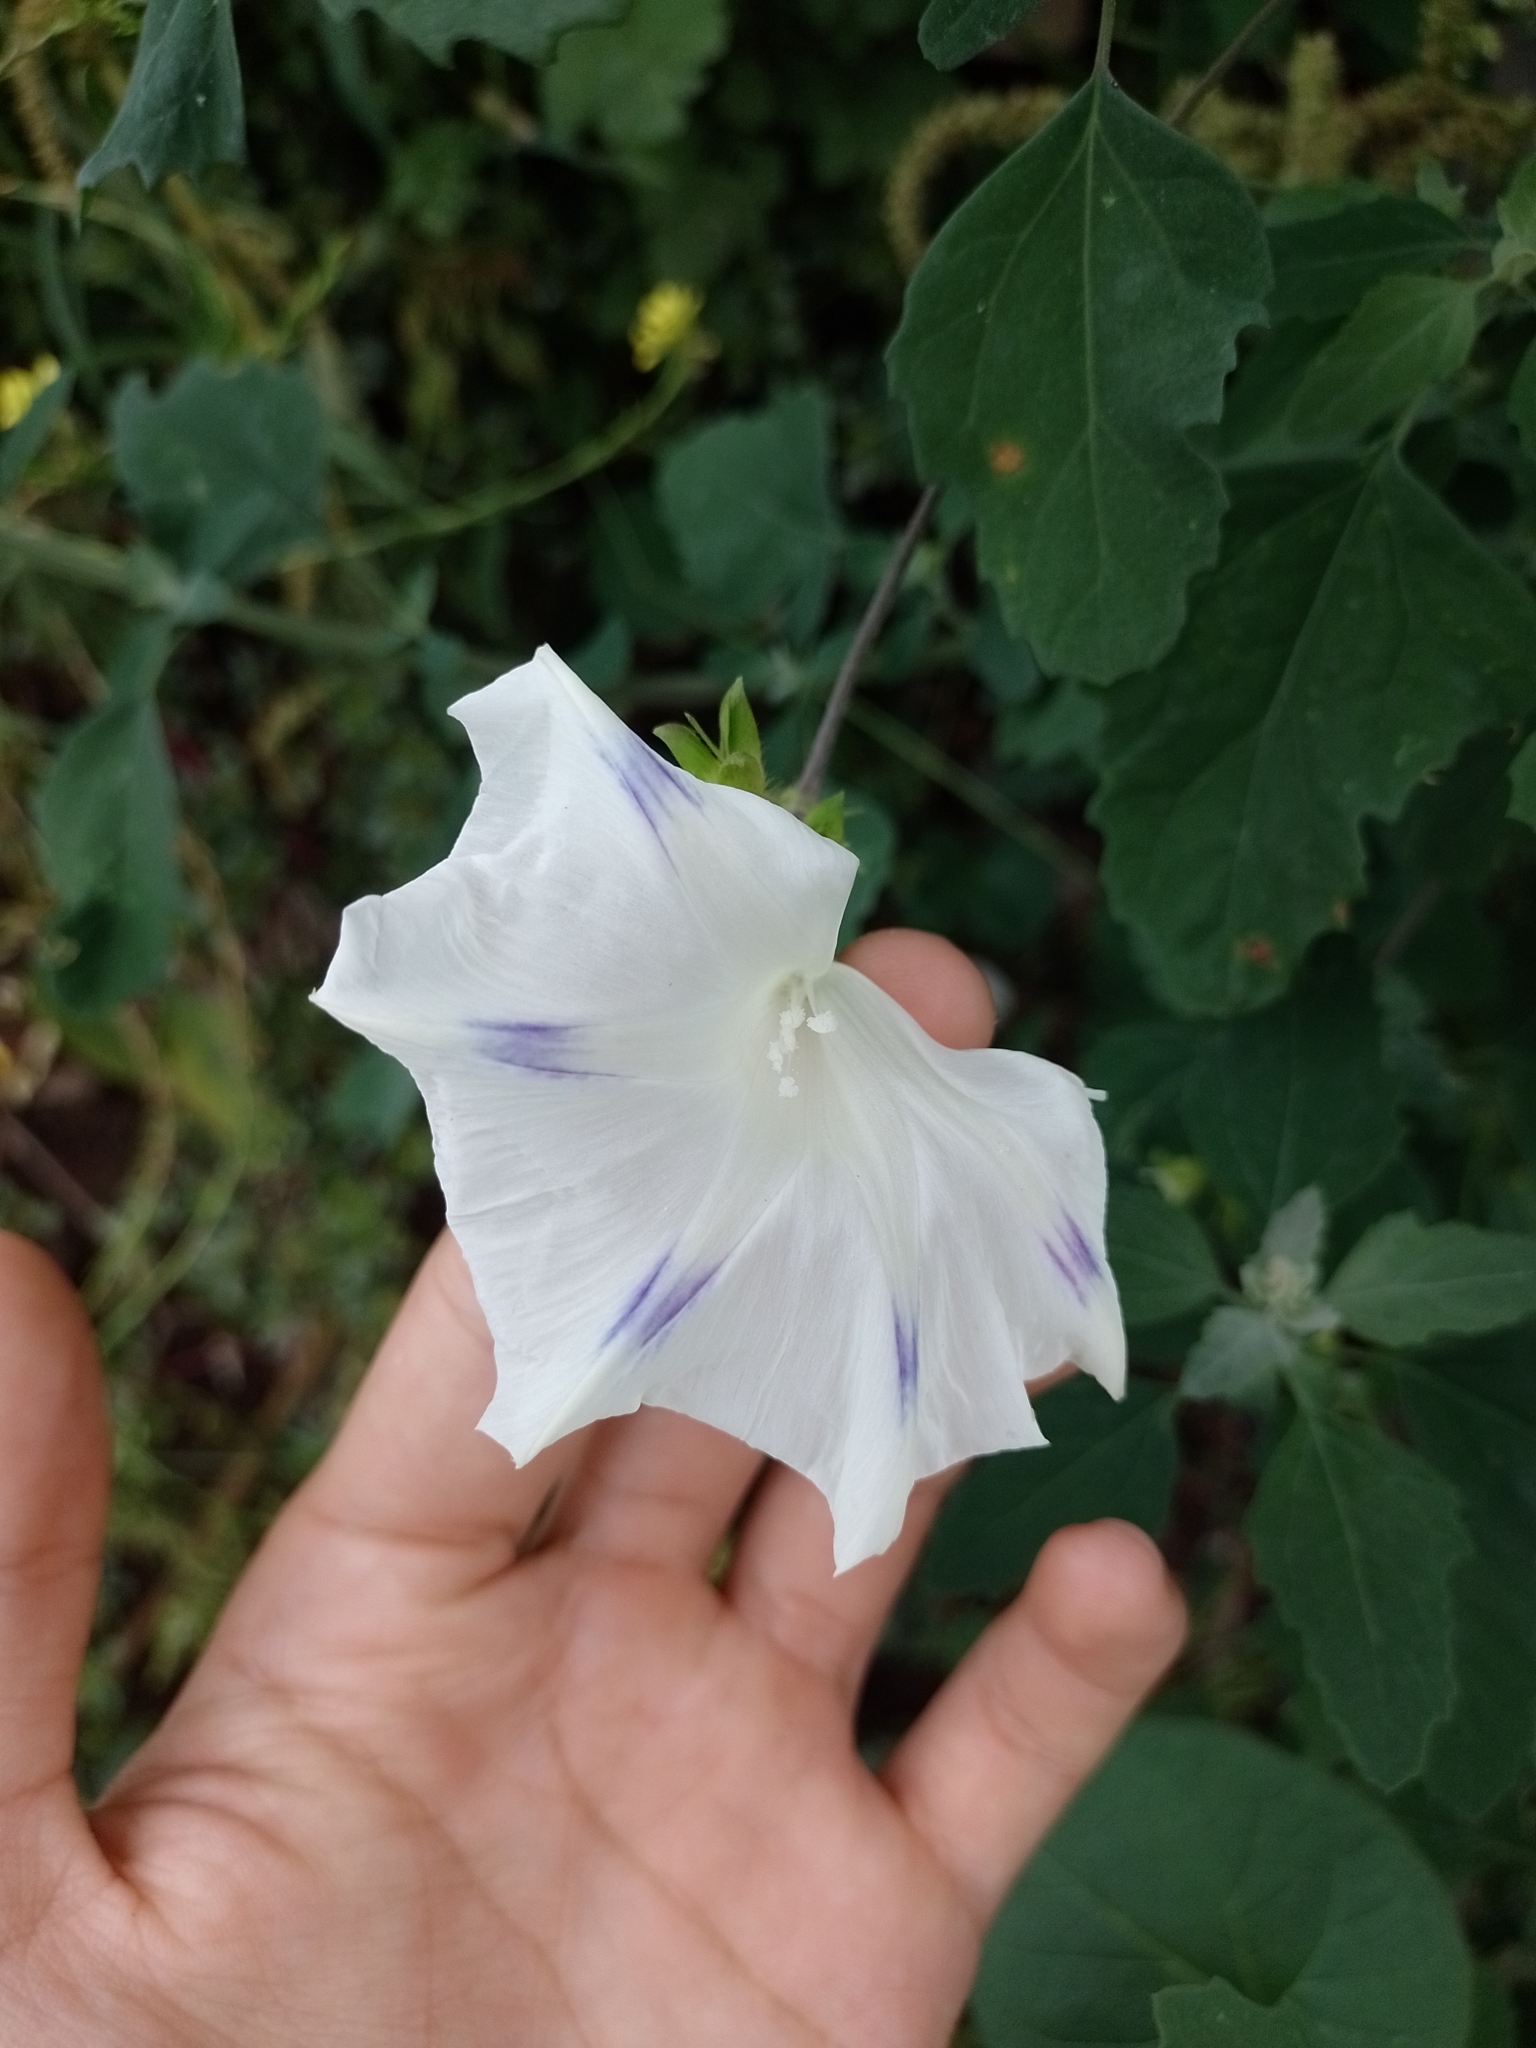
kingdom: Plantae
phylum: Tracheophyta
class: Magnoliopsida
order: Solanales
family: Convolvulaceae
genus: Ipomoea
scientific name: Ipomoea purpurea
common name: Common morning-glory
